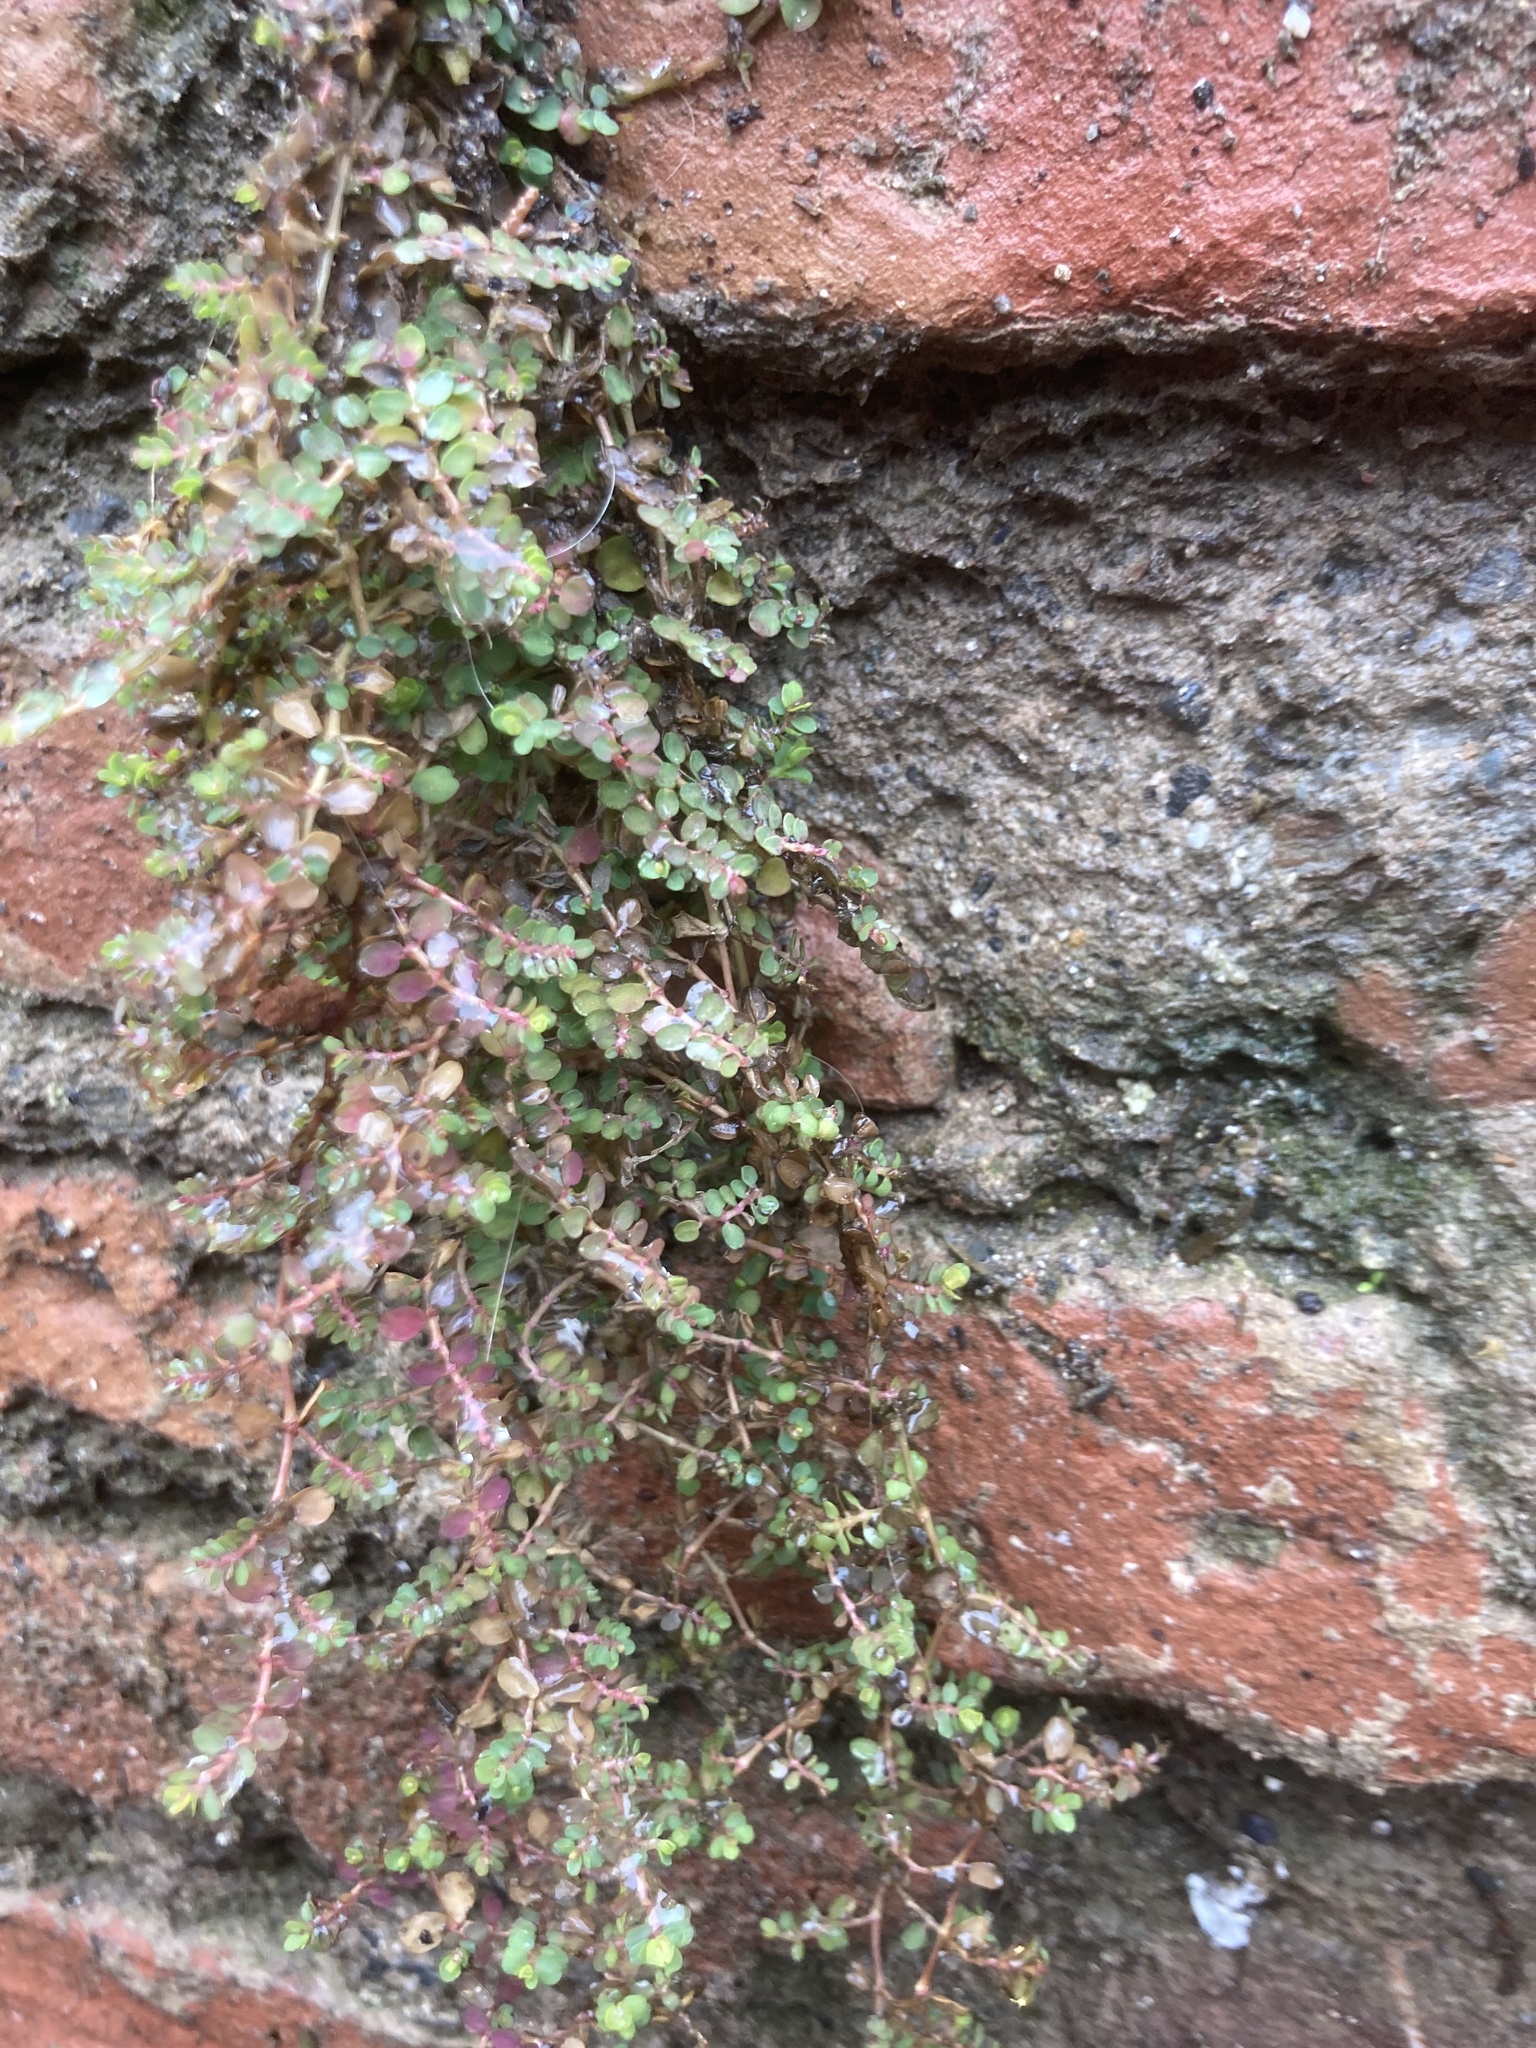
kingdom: Plantae
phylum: Tracheophyta
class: Magnoliopsida
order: Malpighiales
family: Euphorbiaceae
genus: Euphorbia
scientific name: Euphorbia serpens
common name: Matted sandmat
